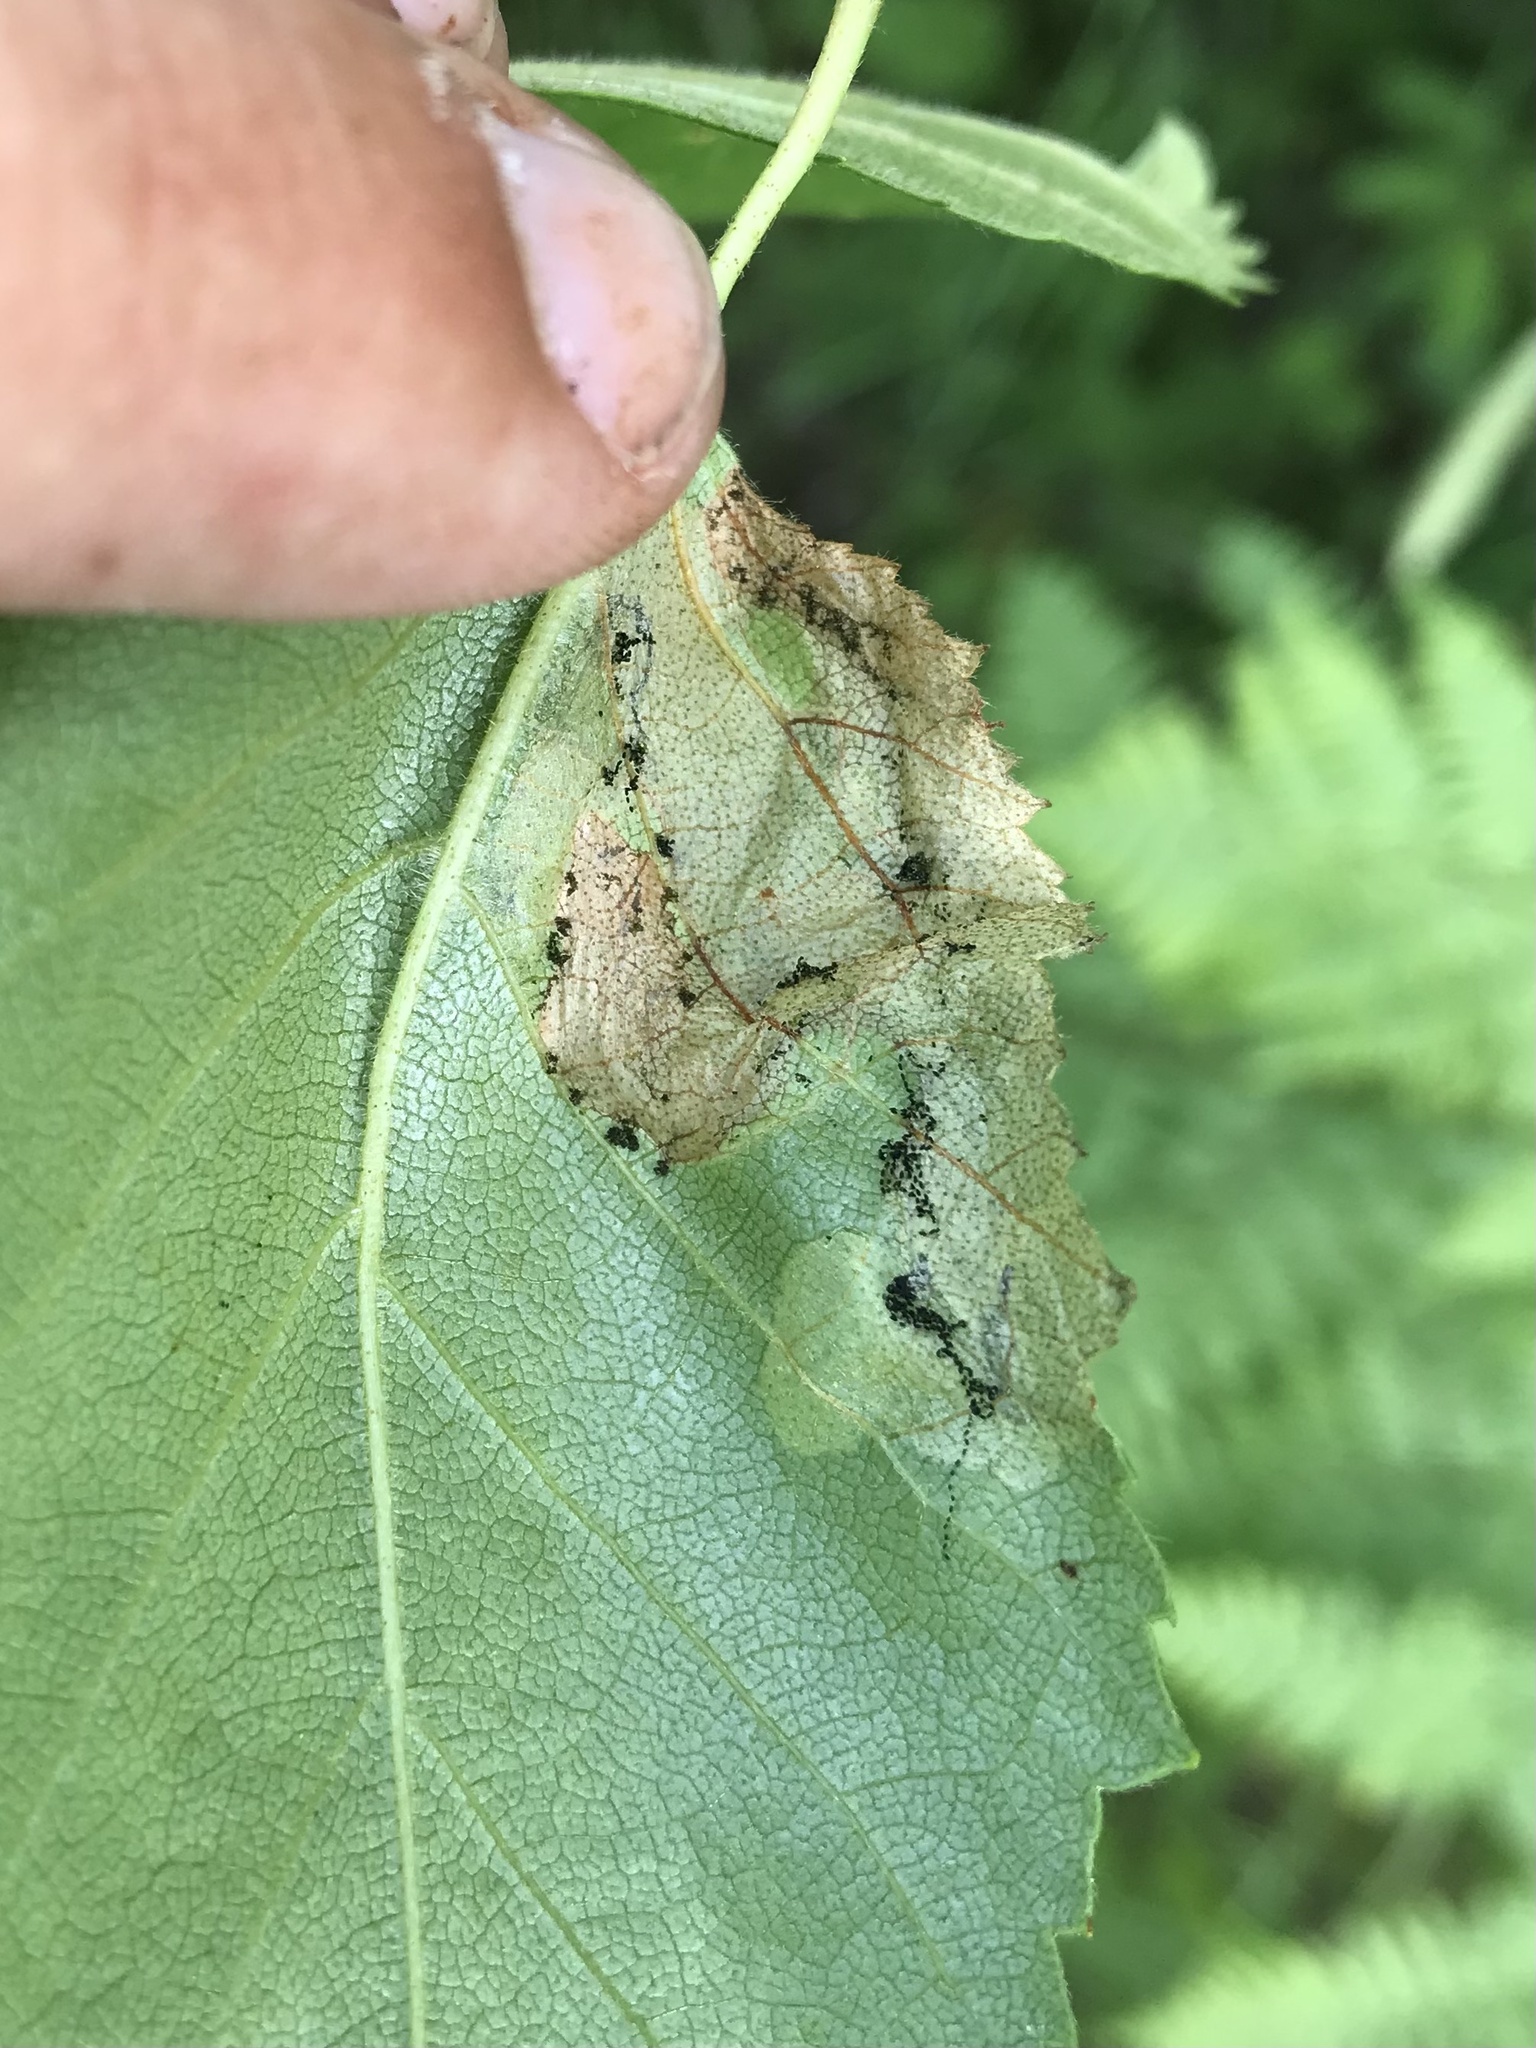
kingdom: Animalia
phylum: Arthropoda
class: Insecta
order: Lepidoptera
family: Lyonetiidae
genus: Lyonetia
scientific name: Lyonetia prunifoliella
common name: Striped bent-wing
